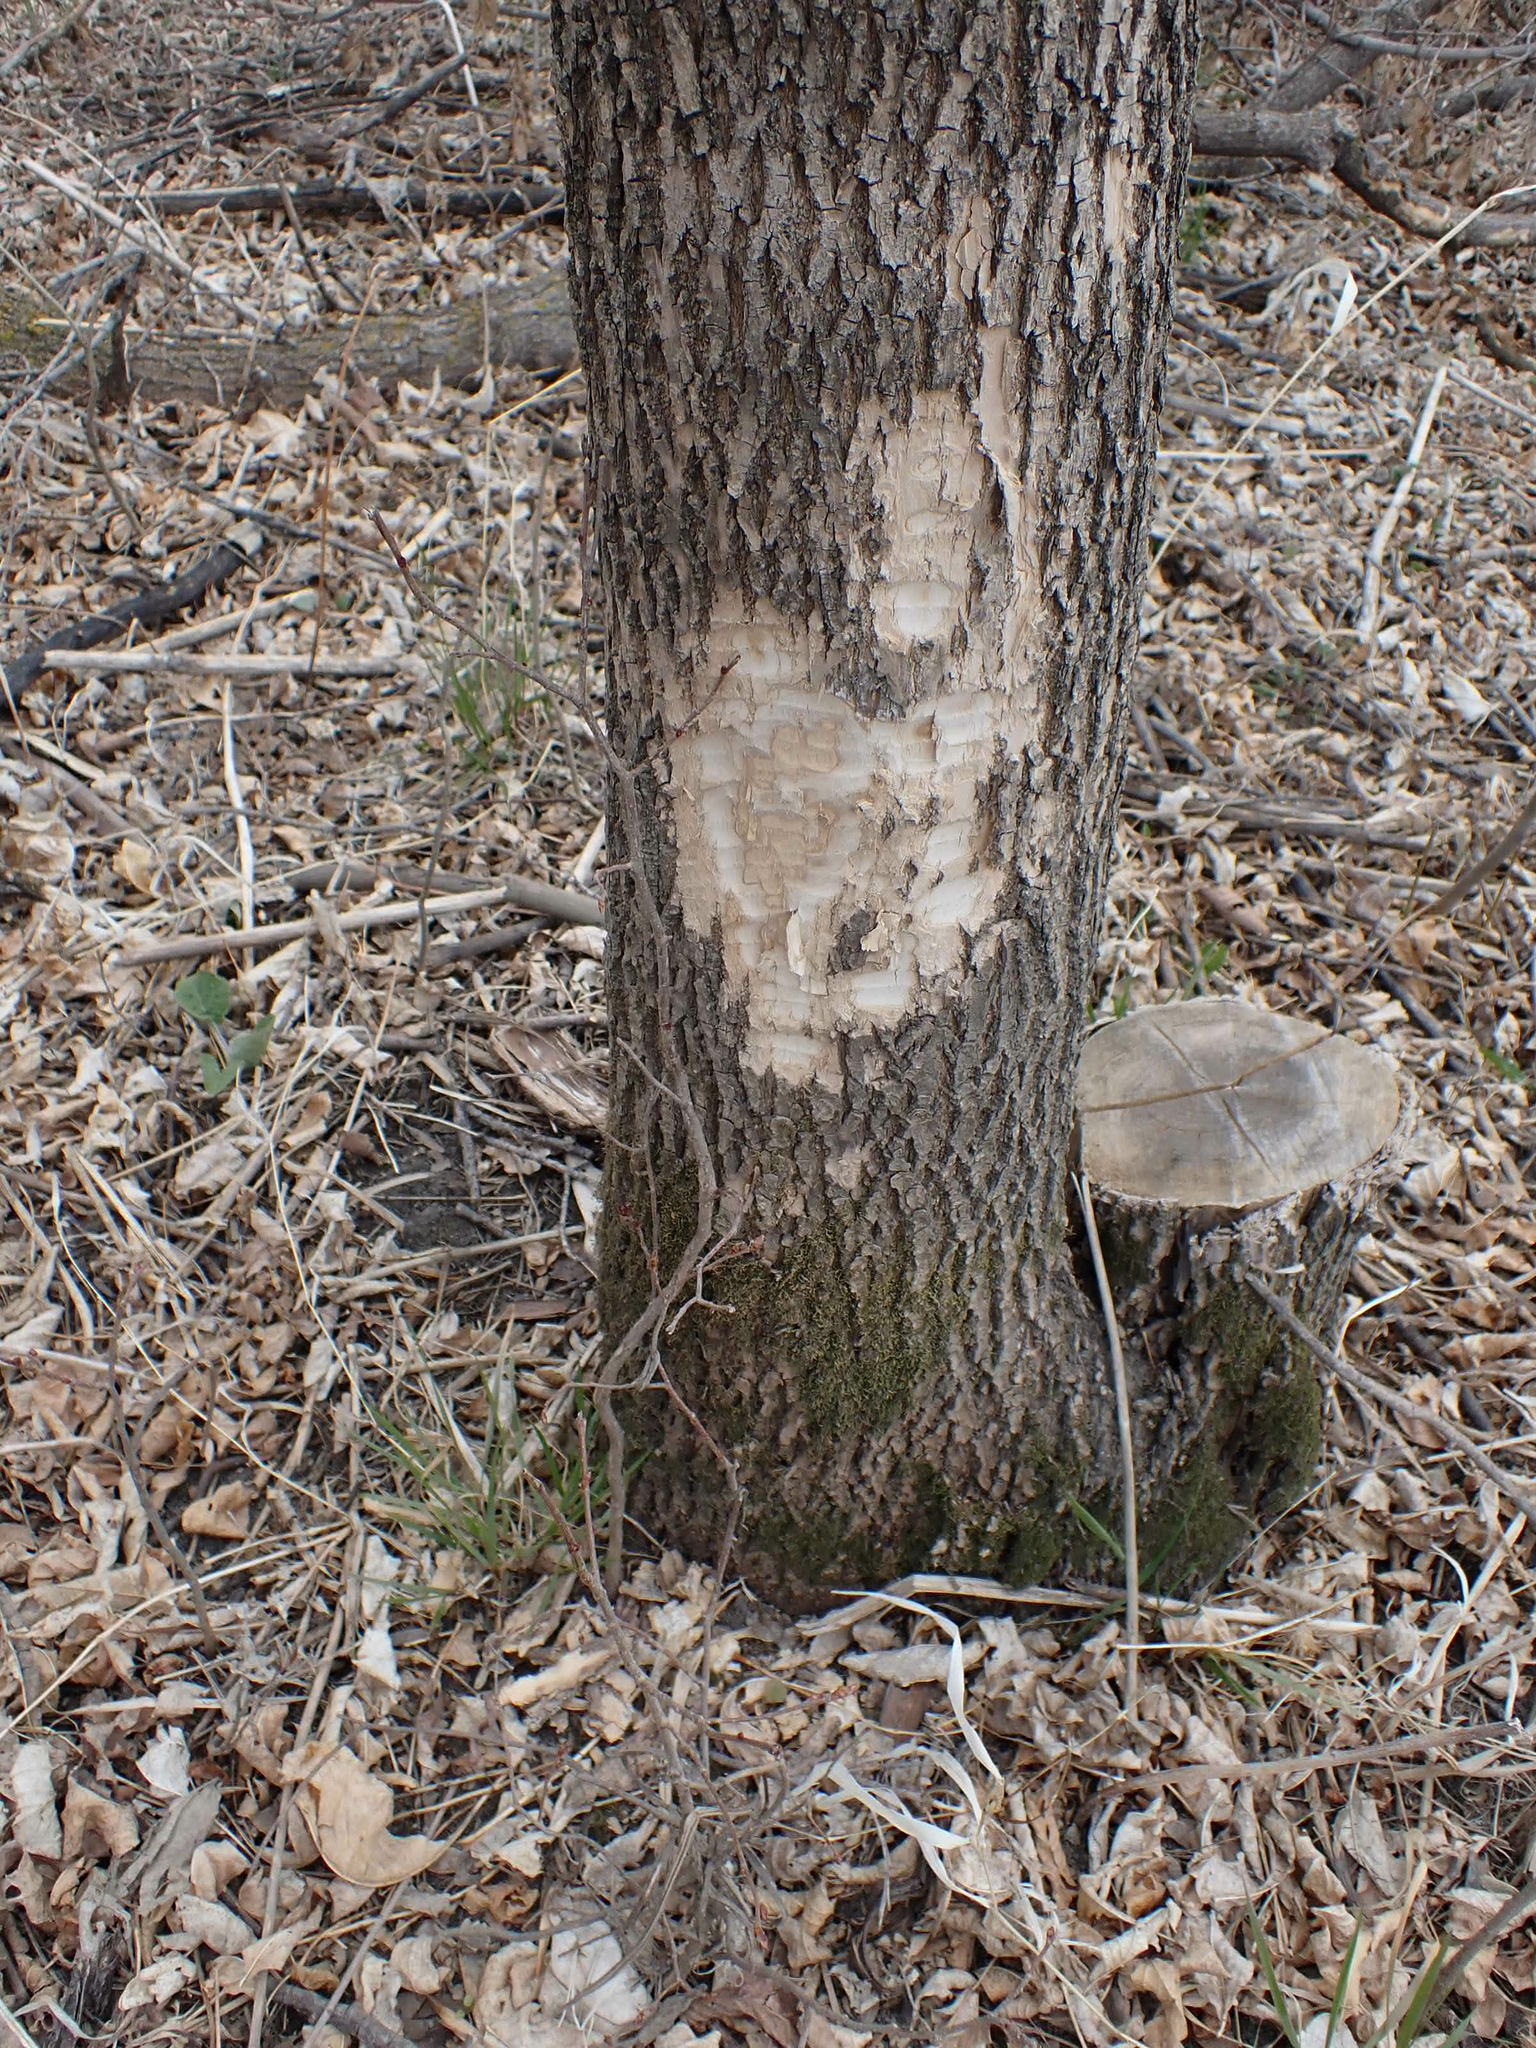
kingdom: Animalia
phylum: Chordata
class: Mammalia
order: Rodentia
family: Castoridae
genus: Castor
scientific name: Castor canadensis
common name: American beaver
